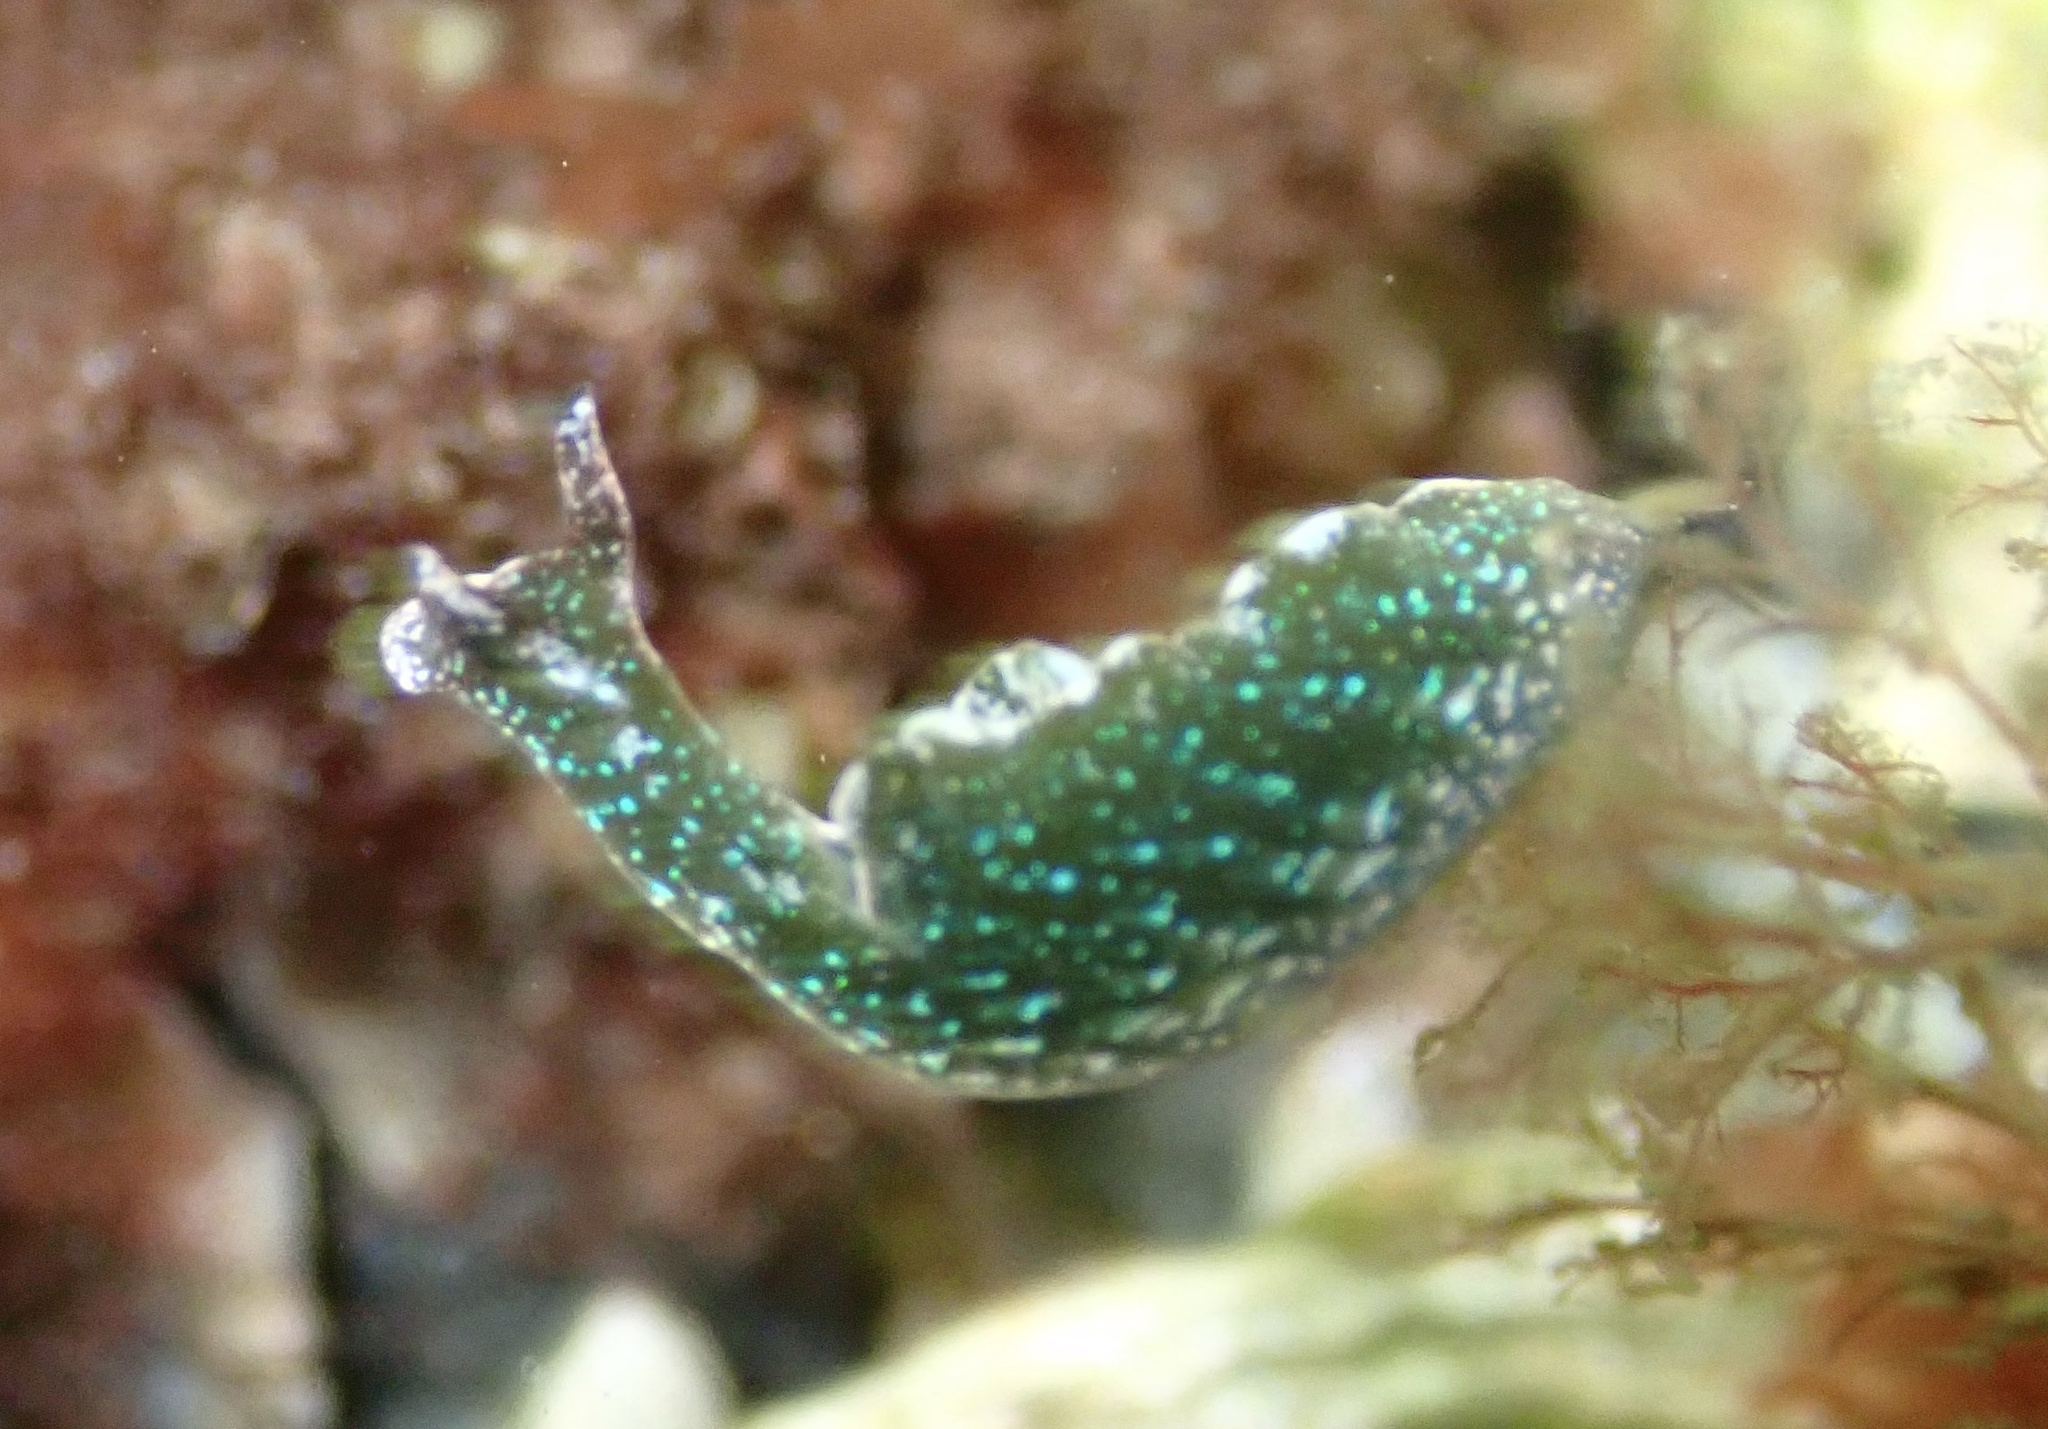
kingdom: Animalia
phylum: Mollusca
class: Gastropoda
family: Plakobranchidae
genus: Elysia
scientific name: Elysia viridis
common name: Green elysia
